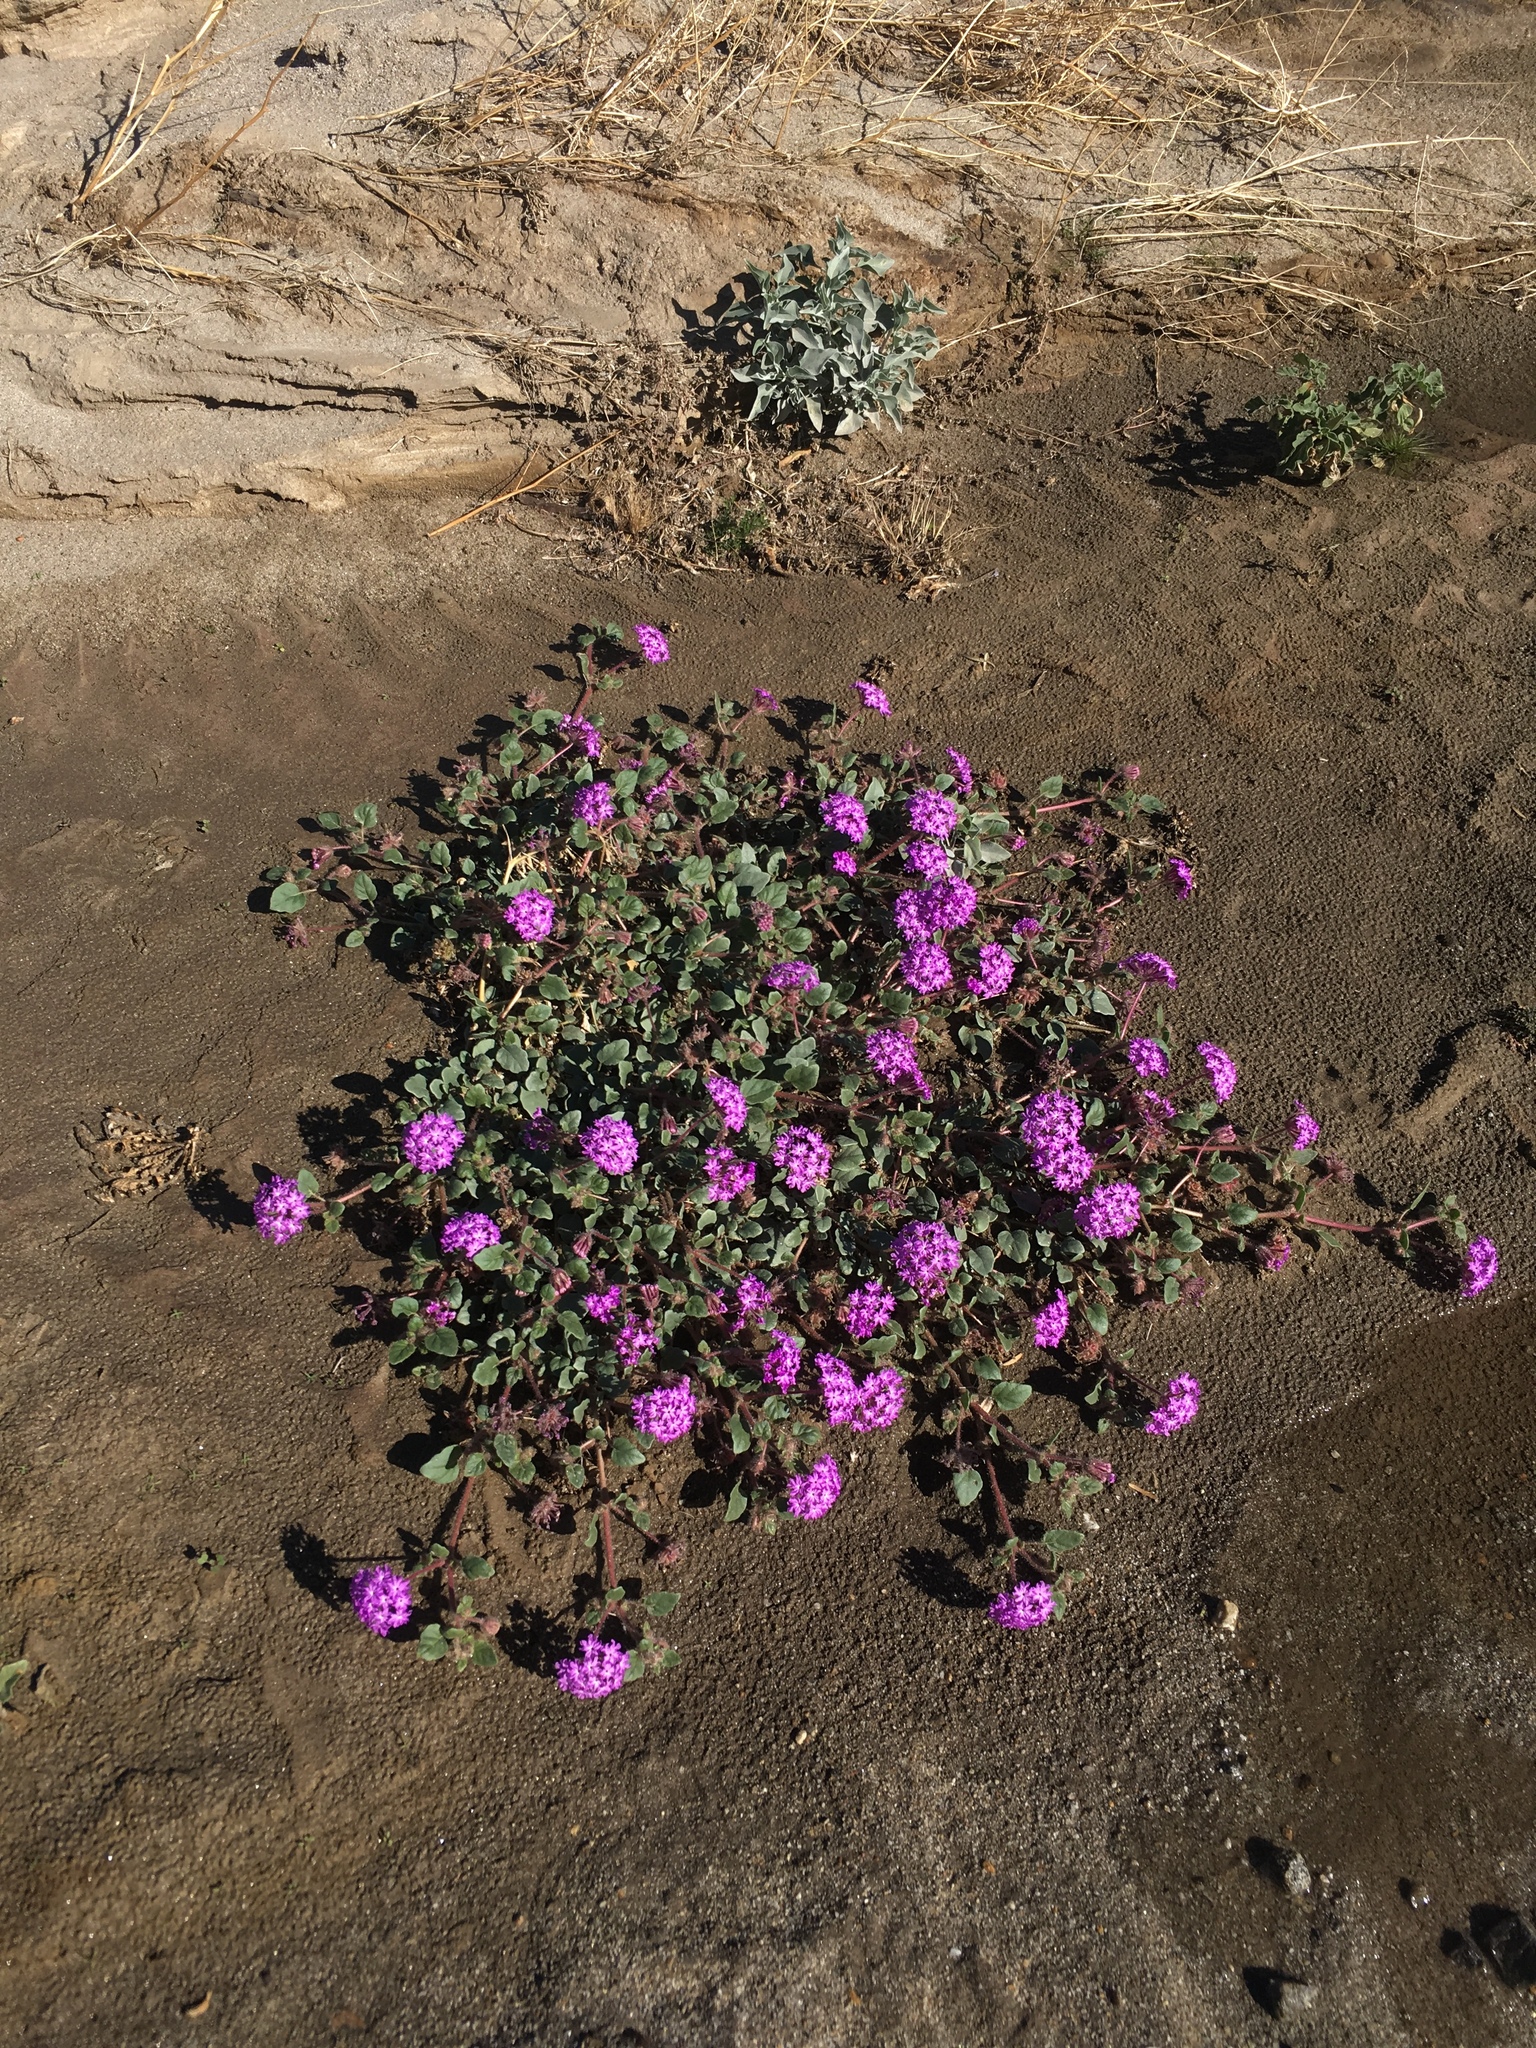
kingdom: Plantae
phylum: Tracheophyta
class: Magnoliopsida
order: Caryophyllales
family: Nyctaginaceae
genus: Abronia
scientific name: Abronia villosa
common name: Desert sand-verbena
